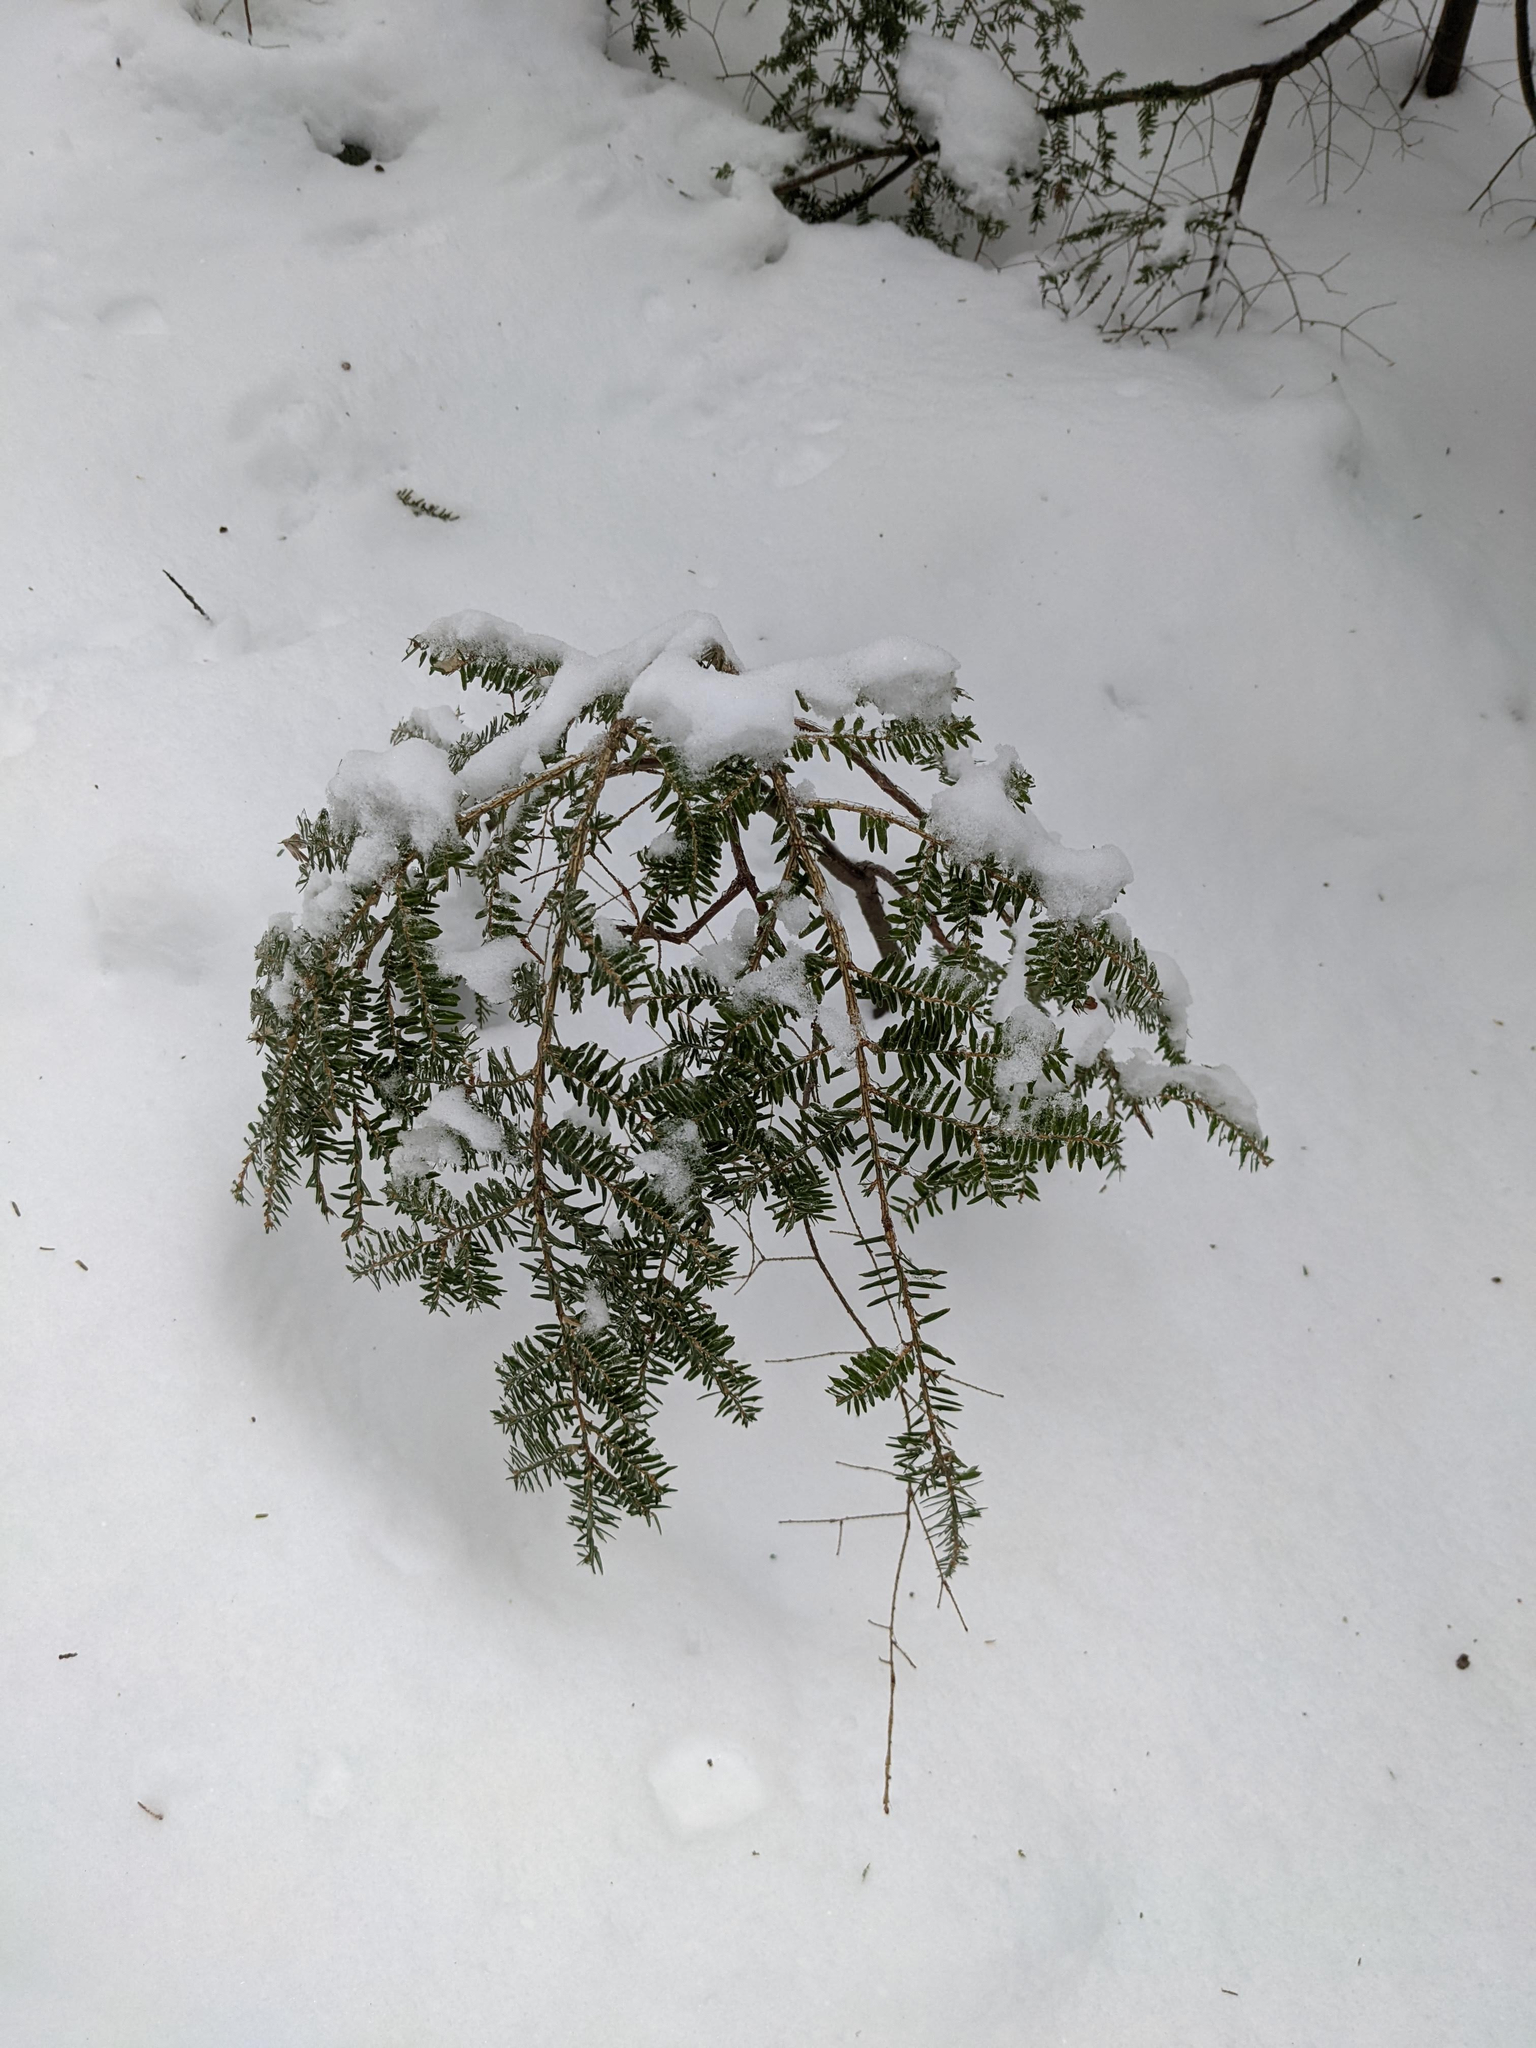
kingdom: Plantae
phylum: Tracheophyta
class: Pinopsida
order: Pinales
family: Pinaceae
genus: Tsuga
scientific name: Tsuga canadensis
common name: Eastern hemlock
